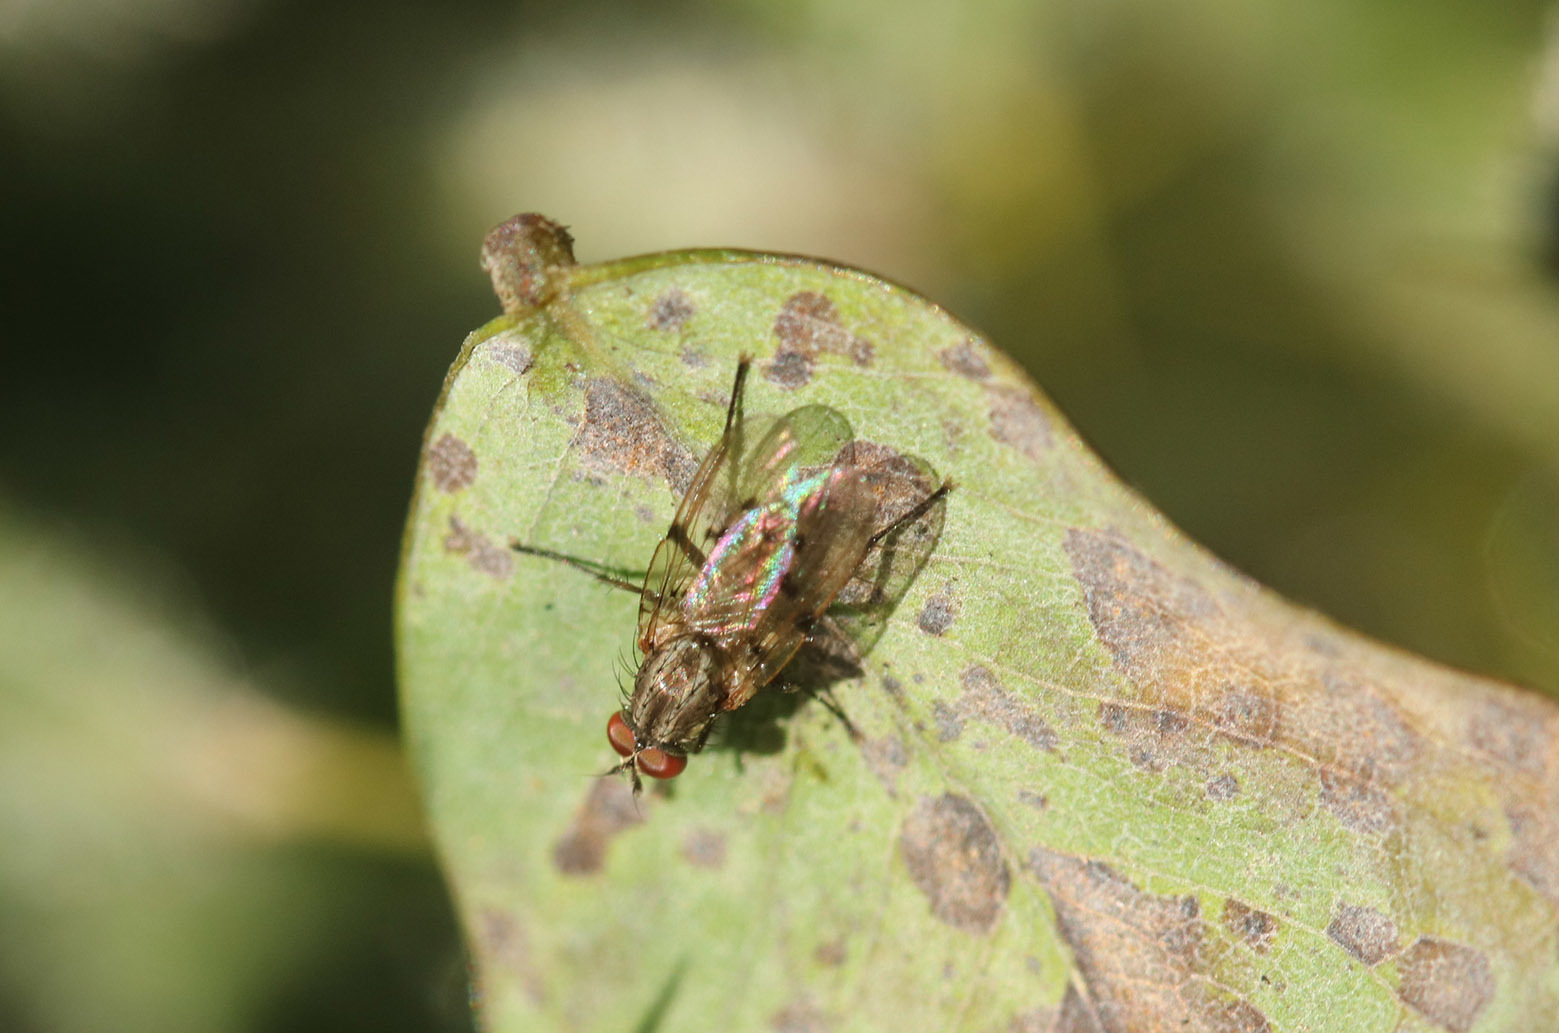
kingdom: Animalia
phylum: Arthropoda
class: Insecta
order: Diptera
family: Anthomyiidae
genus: Anthomyia
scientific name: Anthomyia punctipennis
